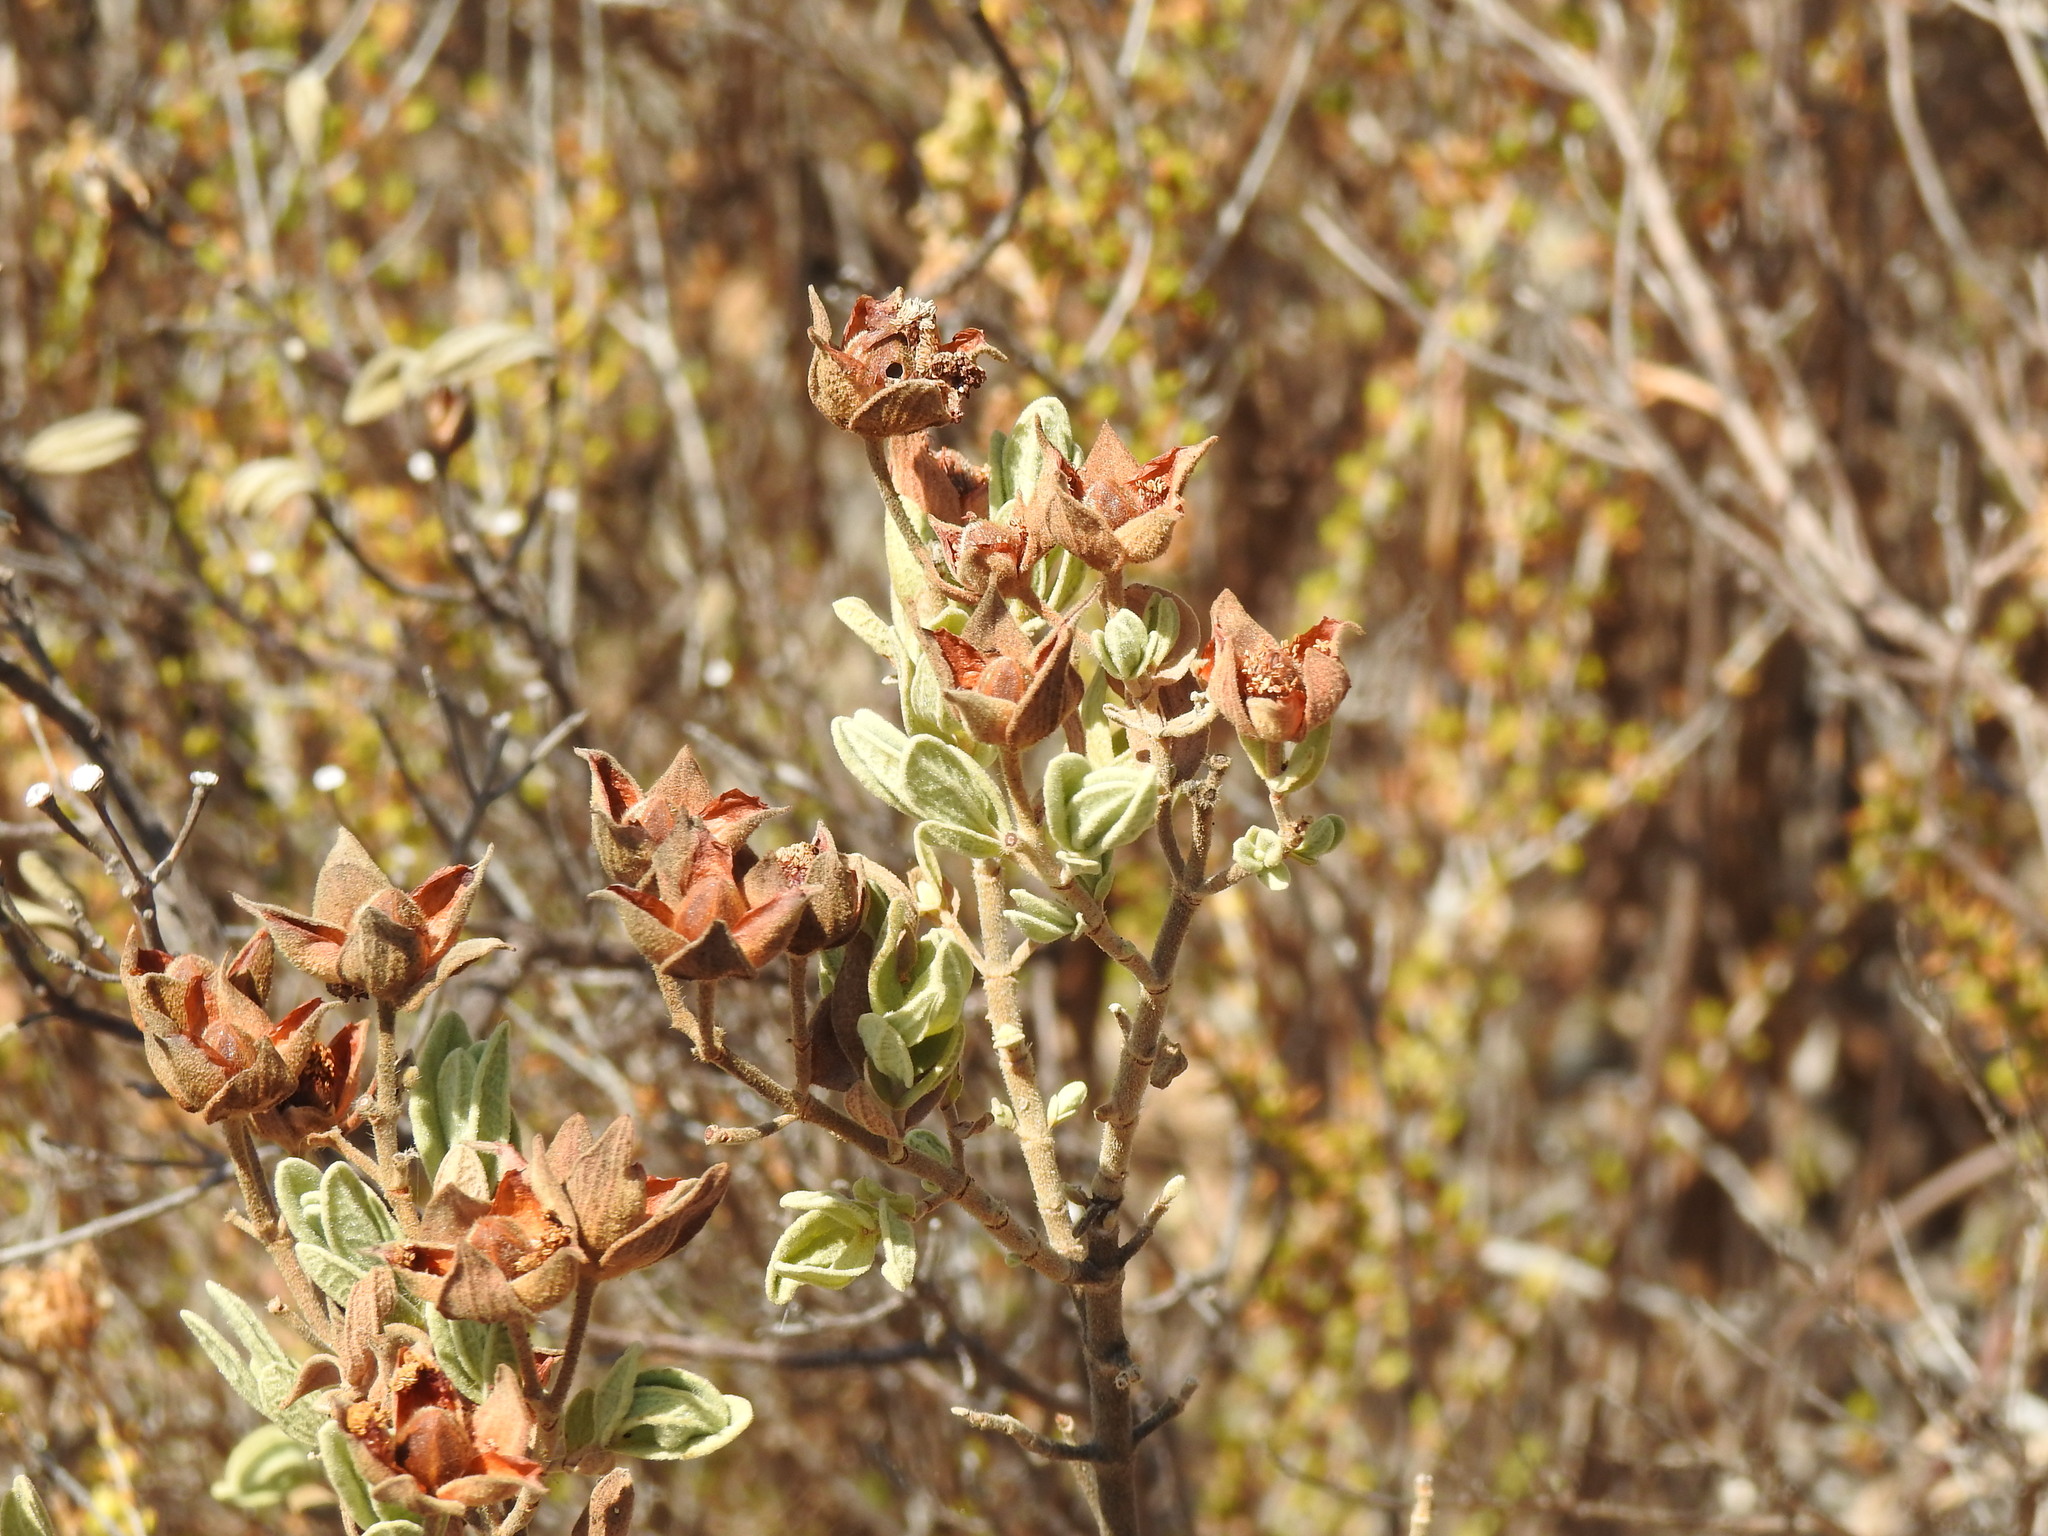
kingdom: Plantae
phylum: Tracheophyta
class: Magnoliopsida
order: Malvales
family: Cistaceae
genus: Cistus
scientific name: Cistus albidus
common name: White-leaf rock-rose
